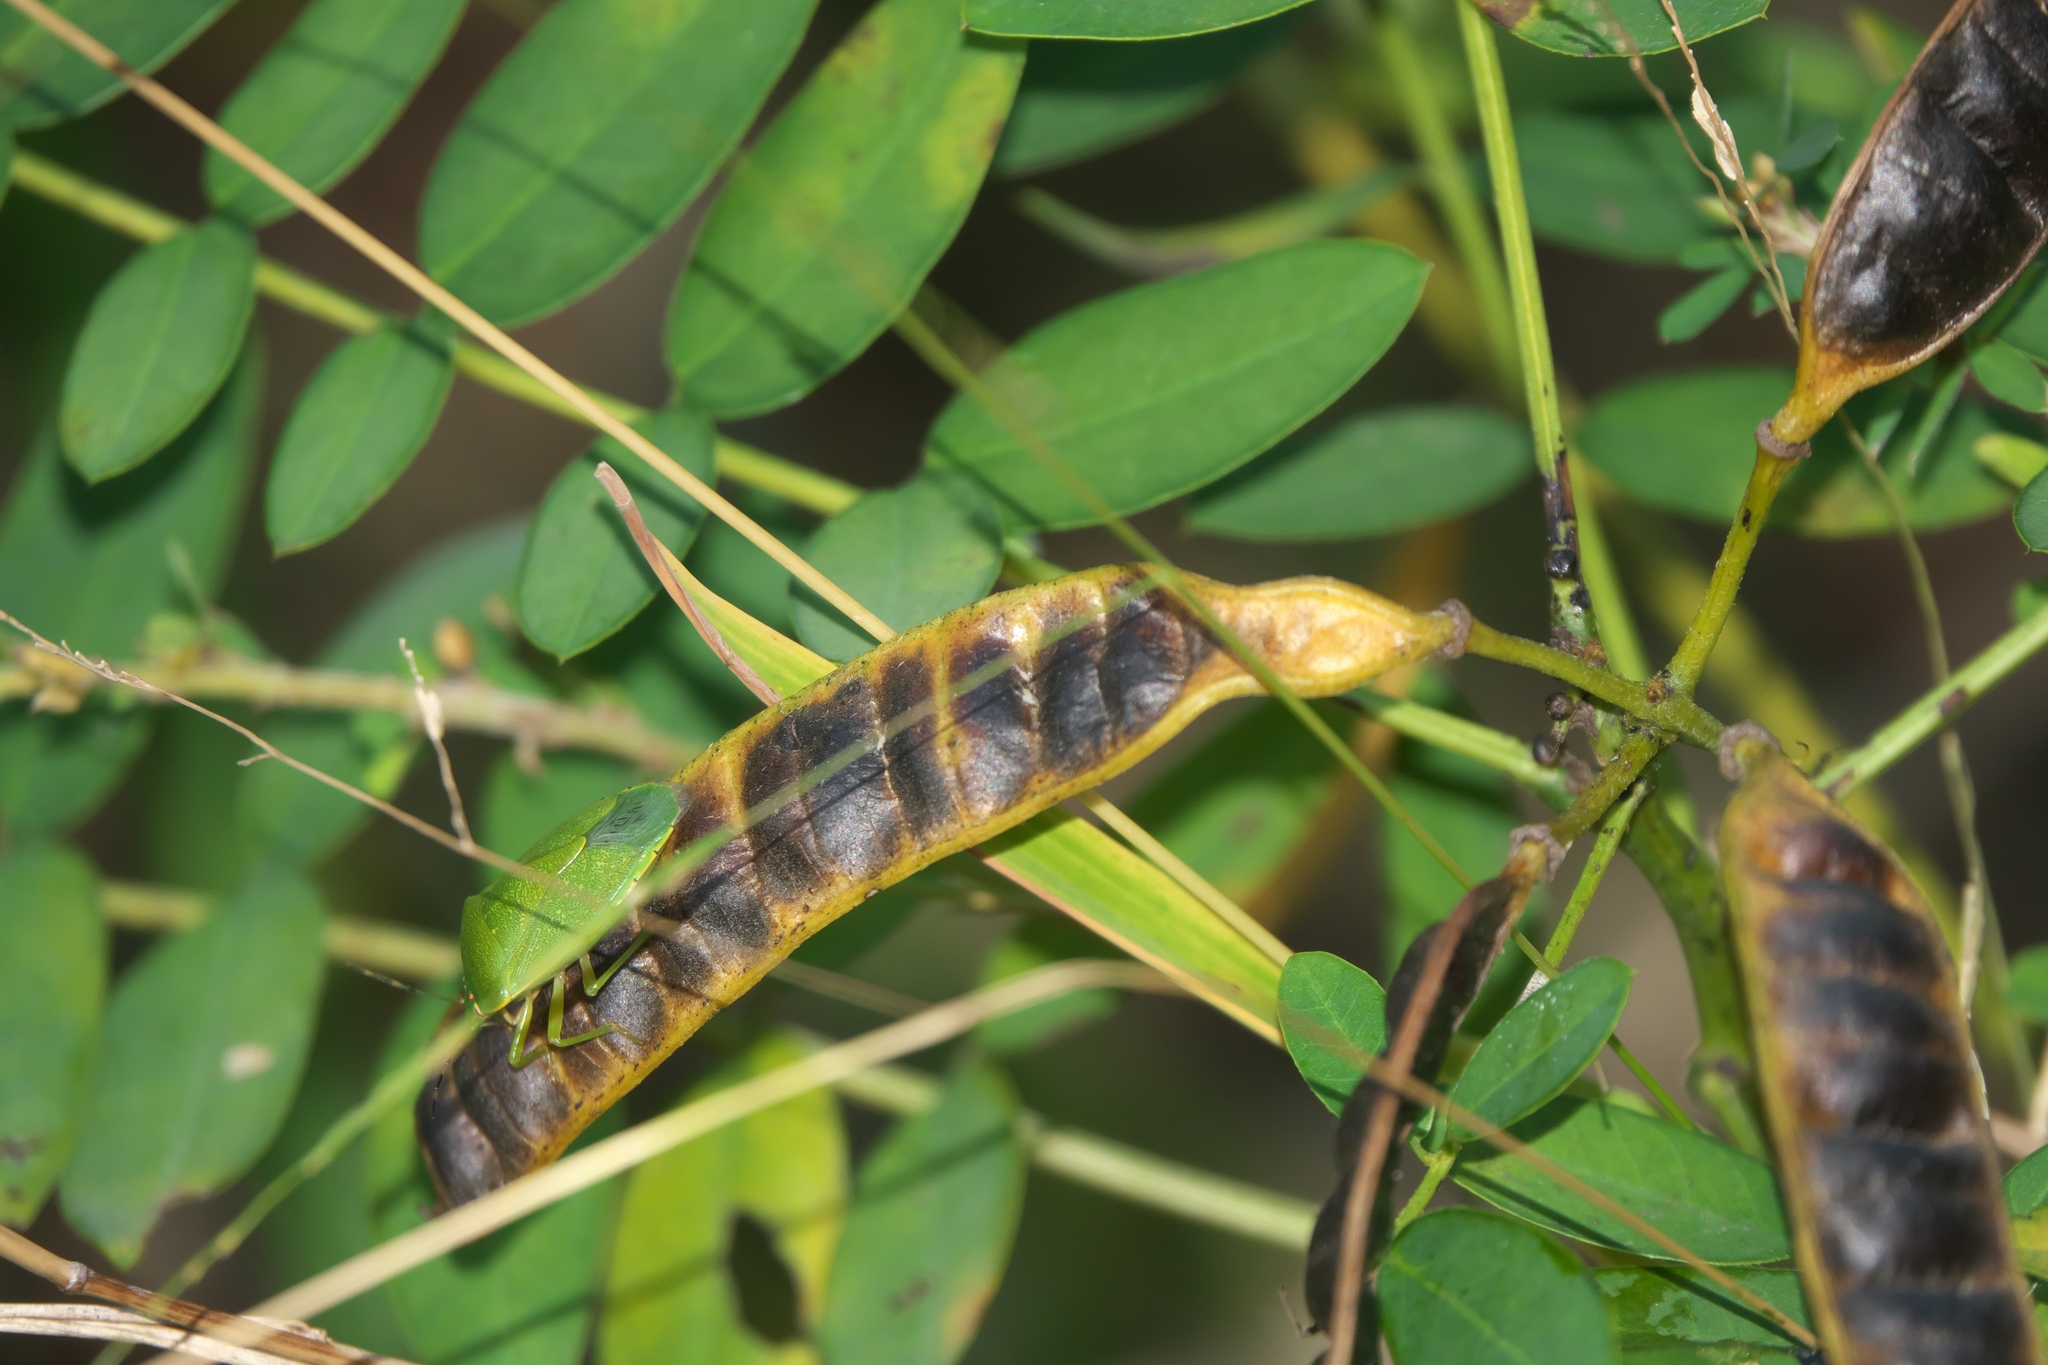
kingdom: Animalia
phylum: Arthropoda
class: Insecta
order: Hemiptera
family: Pentatomidae
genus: Chinavia
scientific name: Chinavia hilaris
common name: Green stink bug
